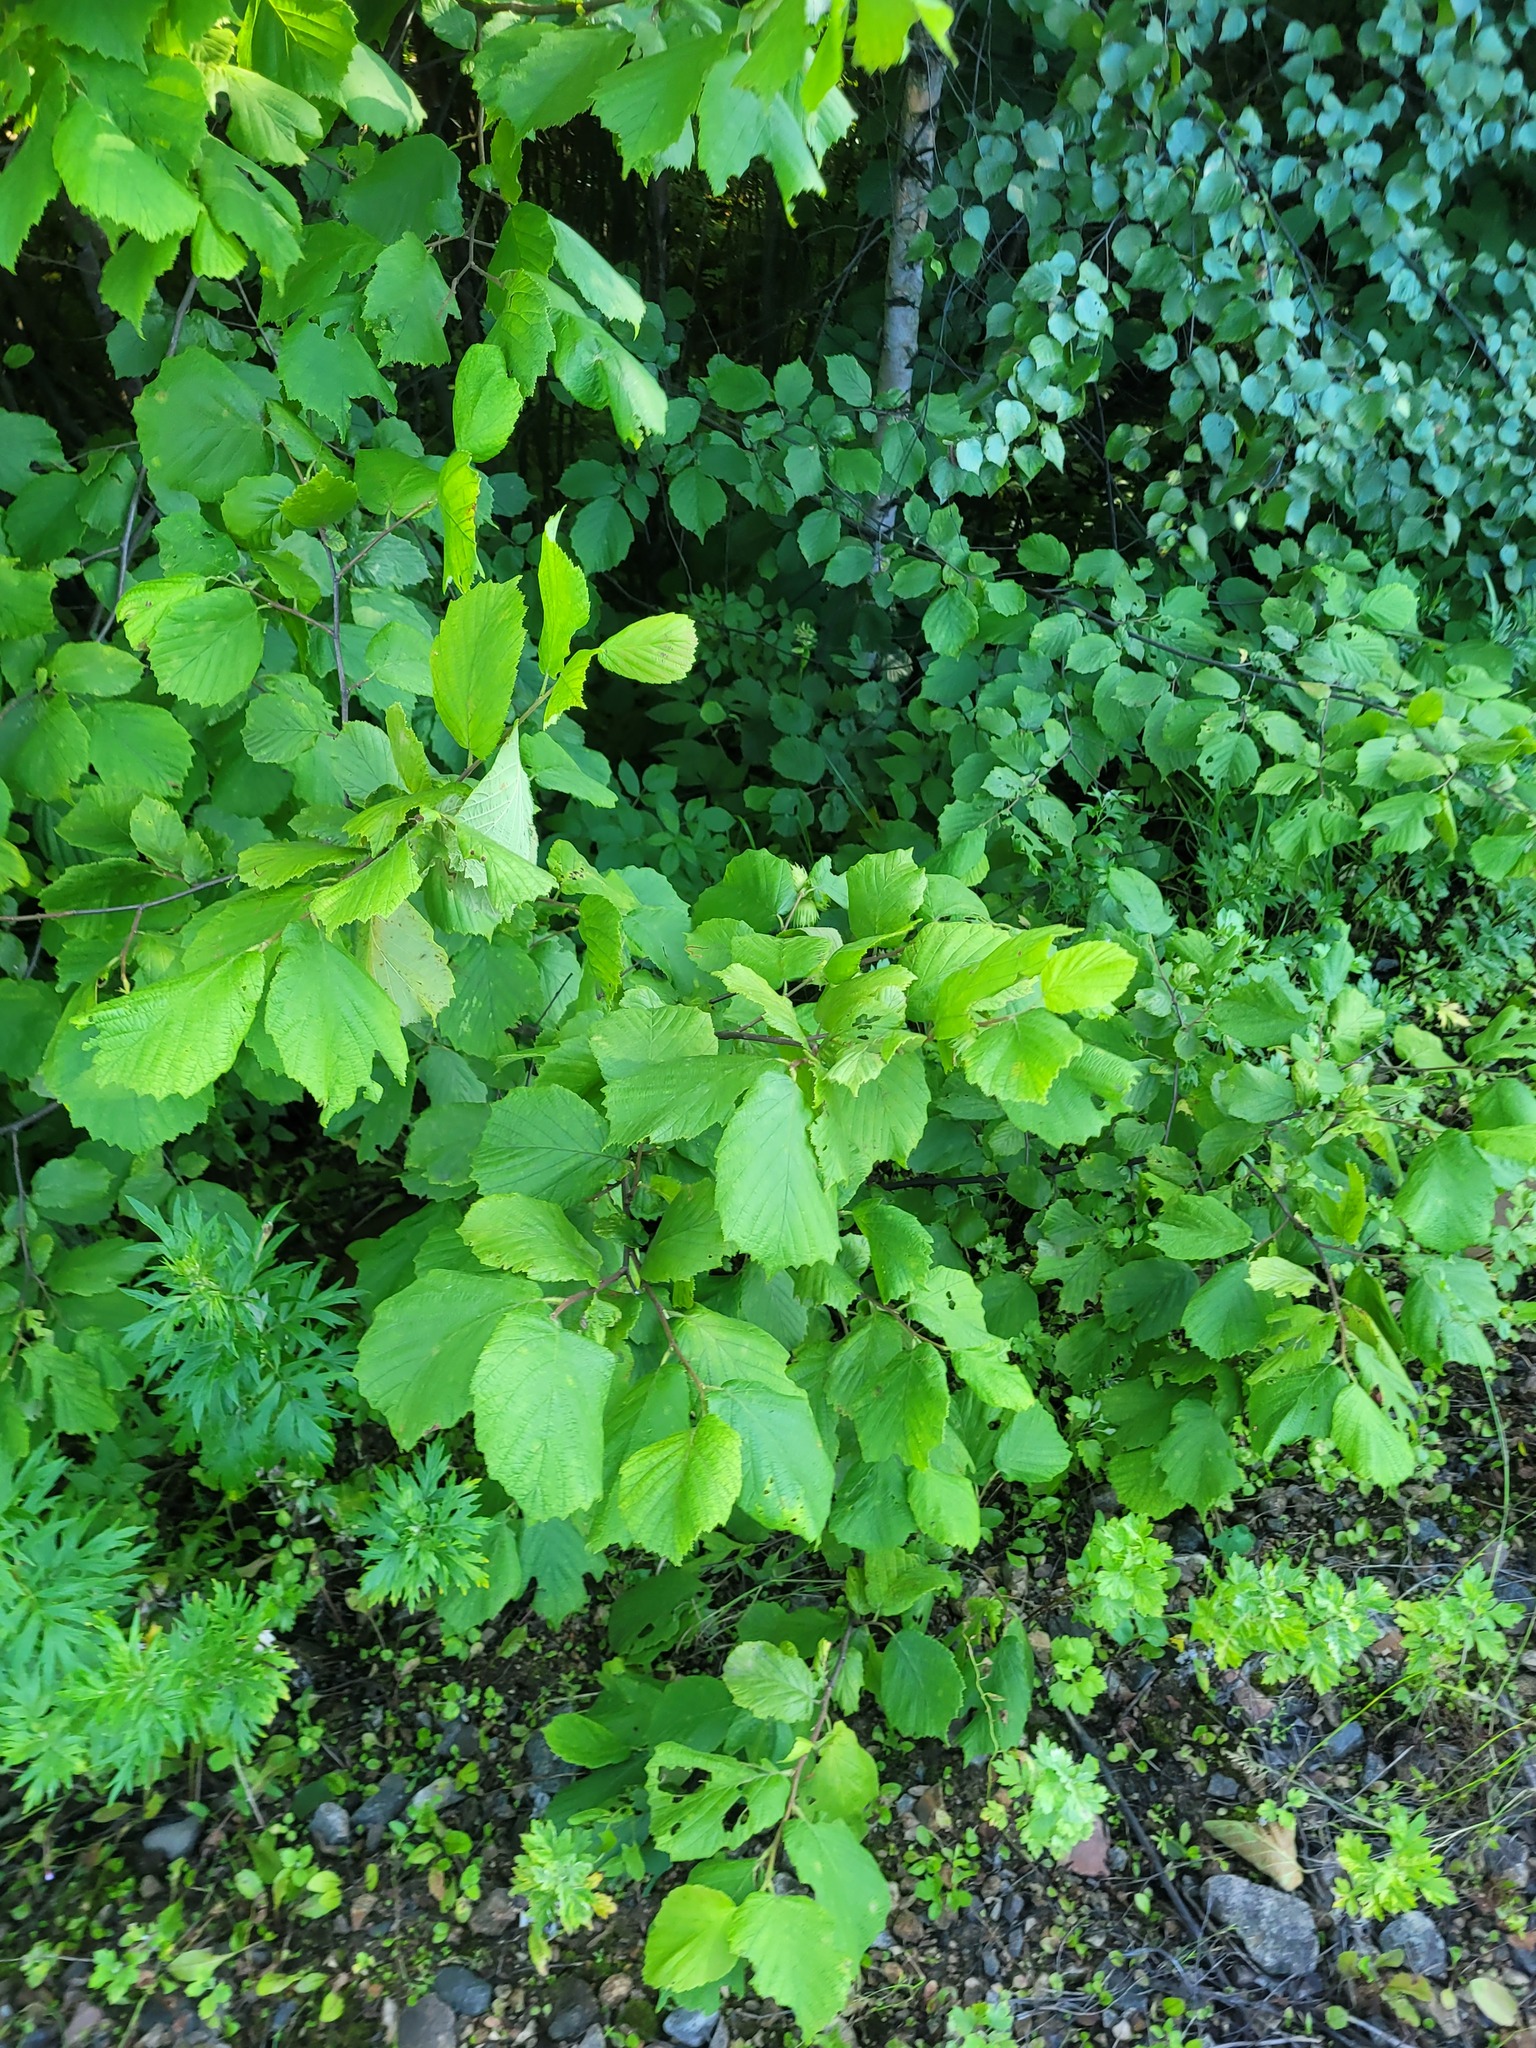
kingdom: Plantae
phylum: Tracheophyta
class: Magnoliopsida
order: Fagales
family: Betulaceae
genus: Corylus
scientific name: Corylus avellana
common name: European hazel
